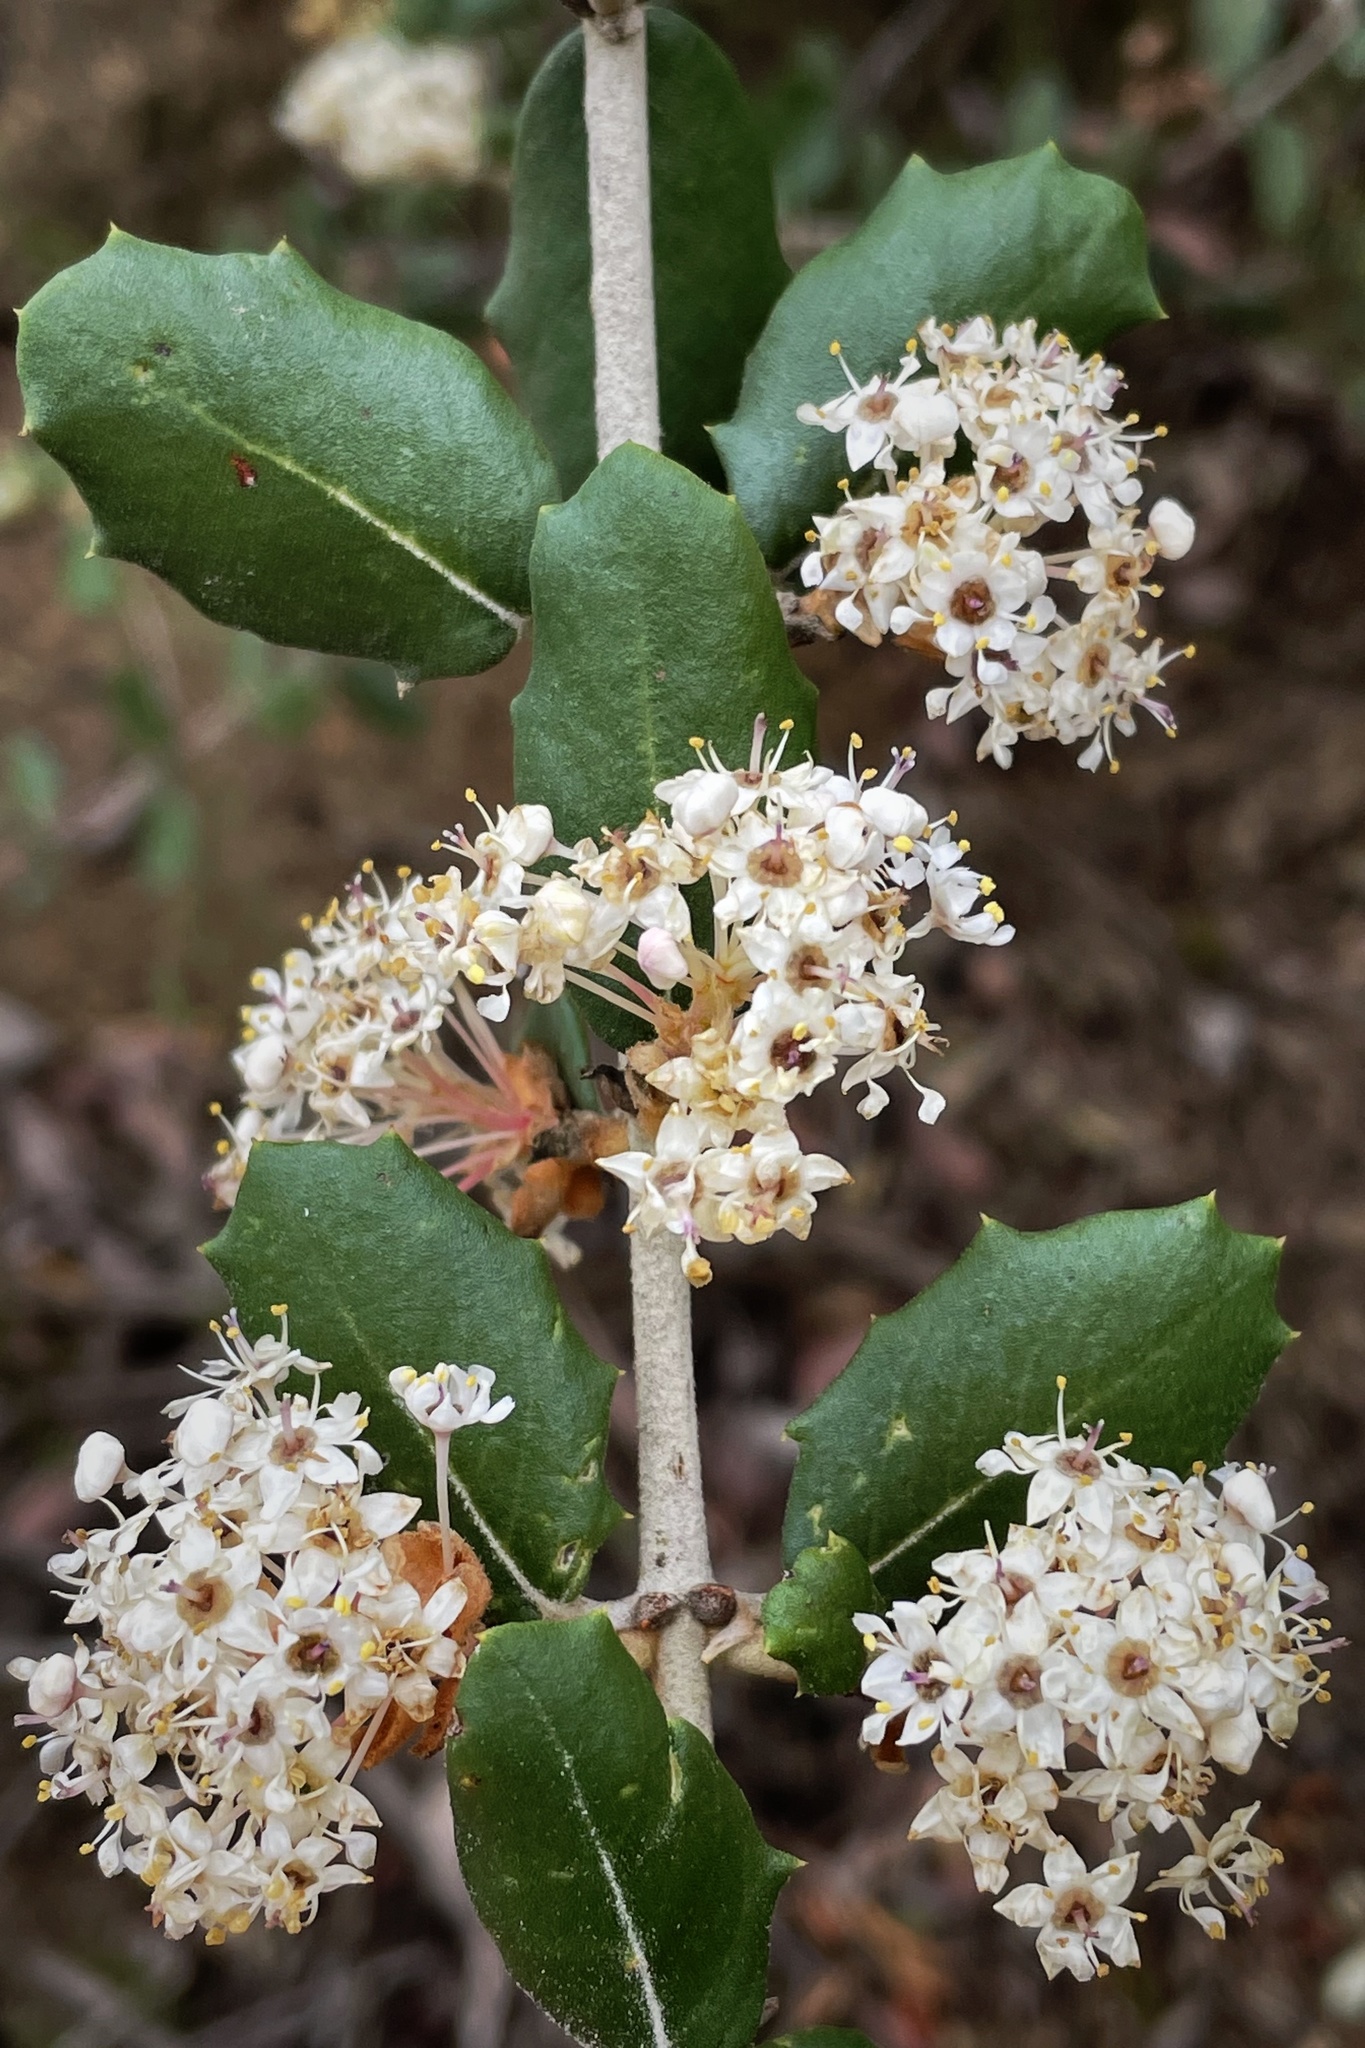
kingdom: Plantae
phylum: Tracheophyta
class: Magnoliopsida
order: Rosales
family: Rhamnaceae
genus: Ceanothus
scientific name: Ceanothus crassifolius
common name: Hoaryleaf ceanothus
